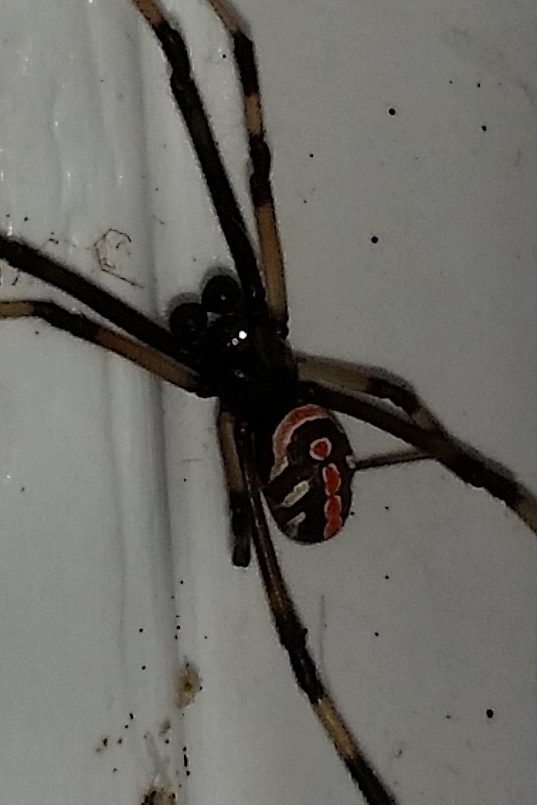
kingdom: Animalia
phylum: Arthropoda
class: Arachnida
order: Araneae
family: Theridiidae
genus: Latrodectus
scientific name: Latrodectus mactans
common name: Cobweb spiders
